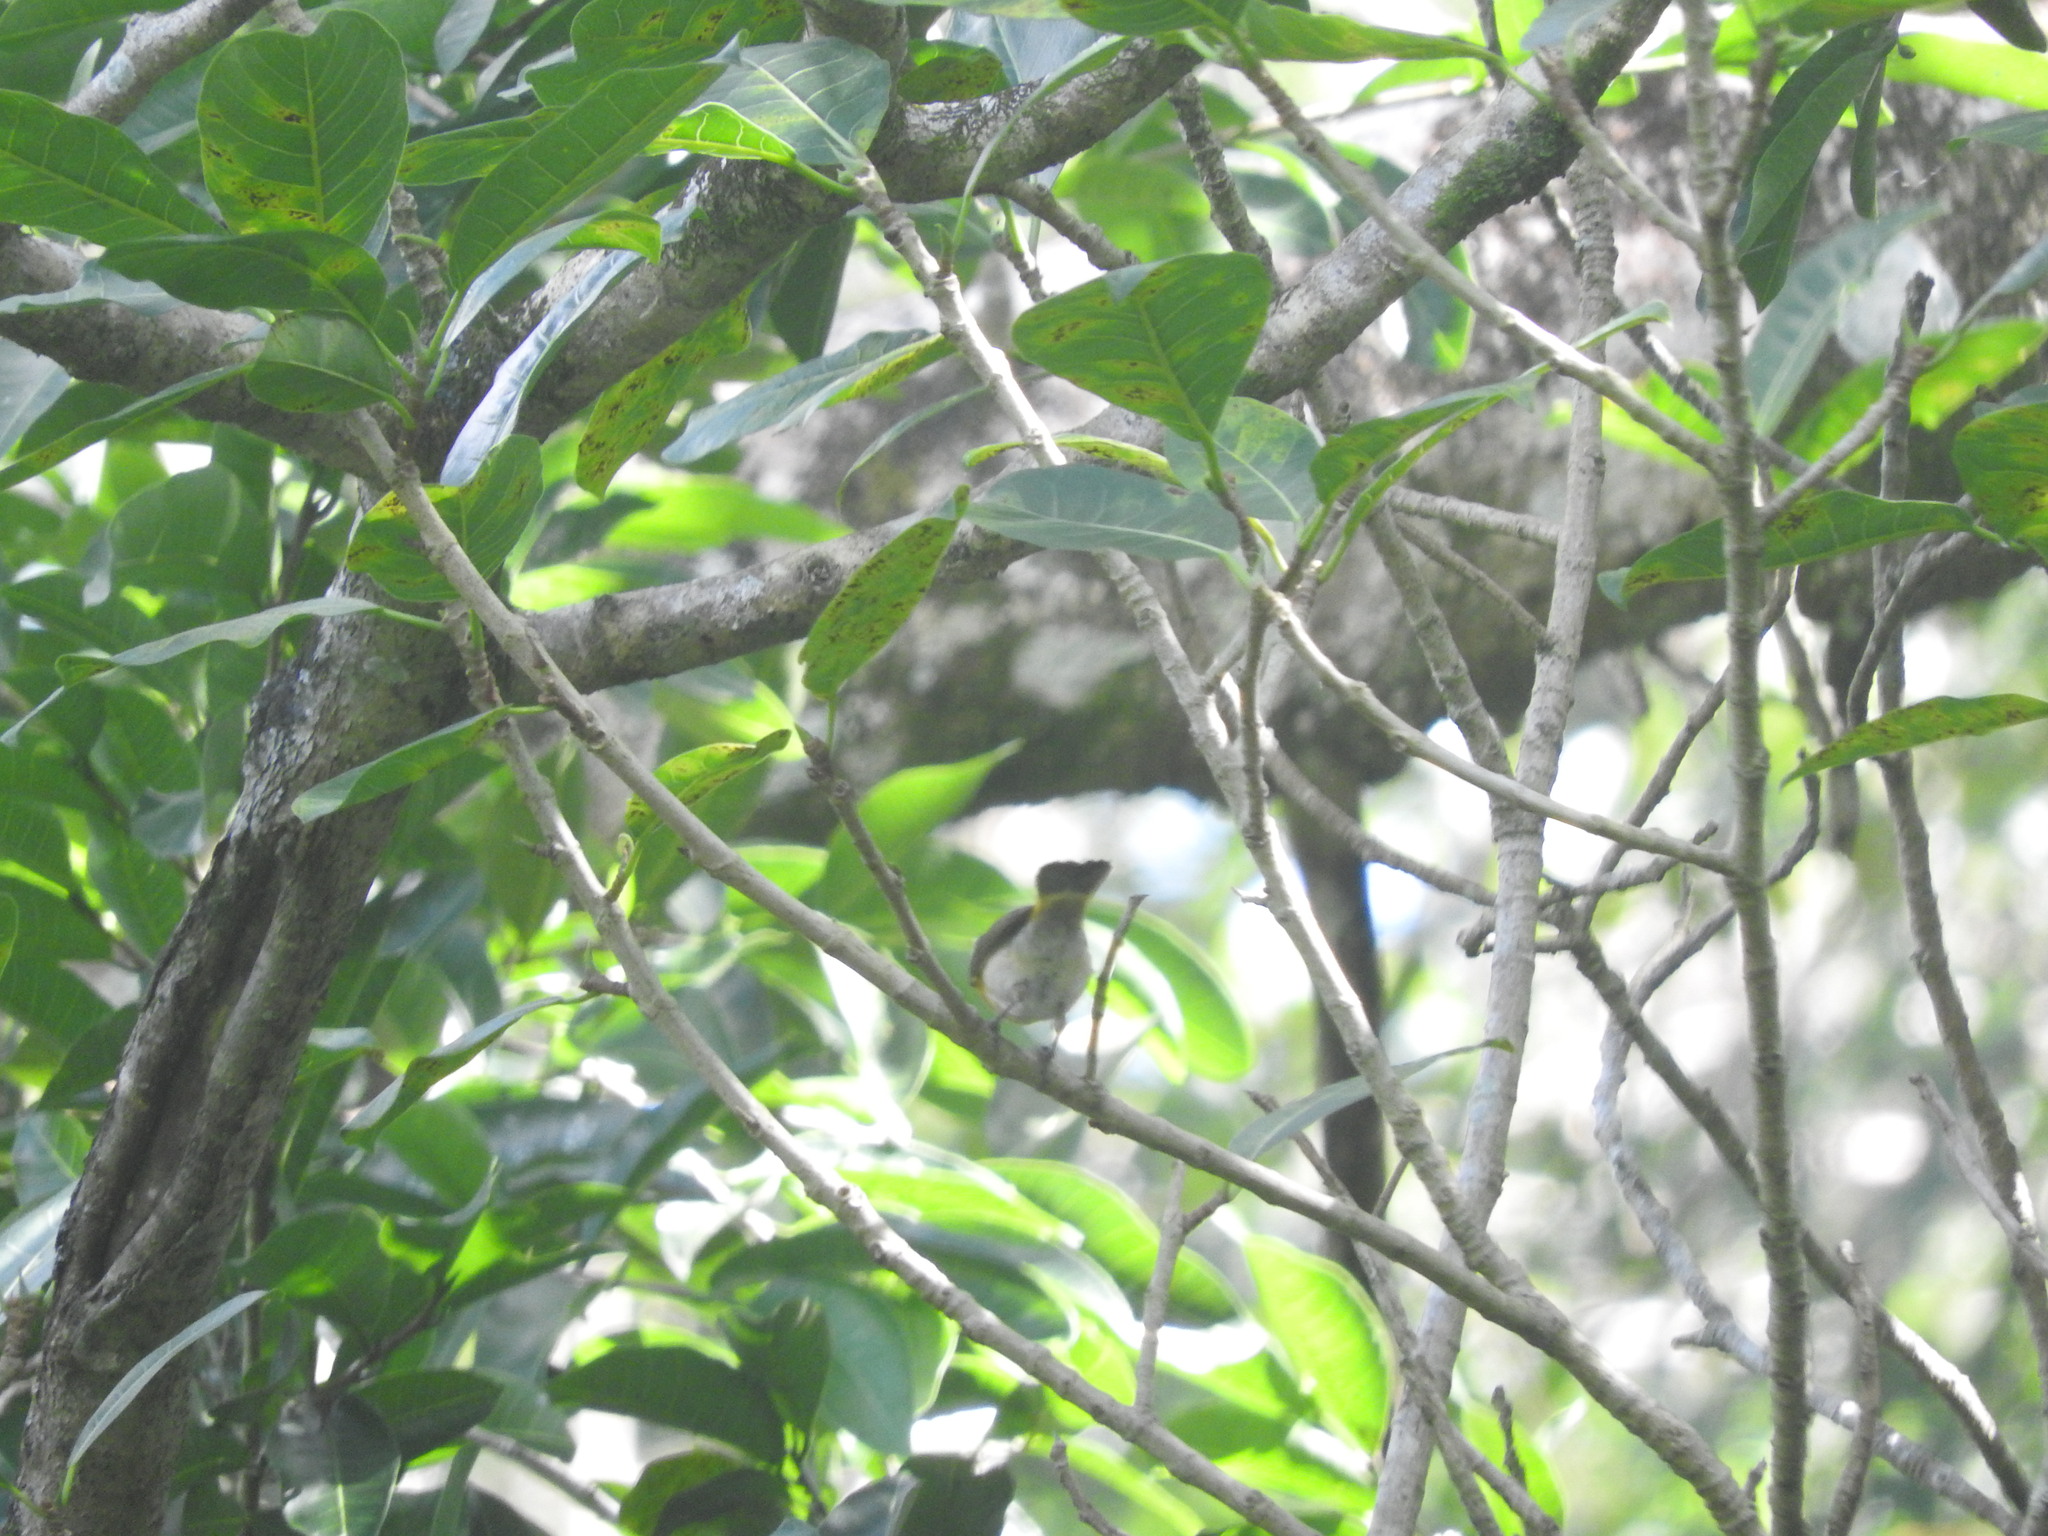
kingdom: Animalia
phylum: Chordata
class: Aves
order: Passeriformes
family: Vireonidae
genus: Vireo
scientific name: Vireo flavoviridis
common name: Yellow-green vireo
